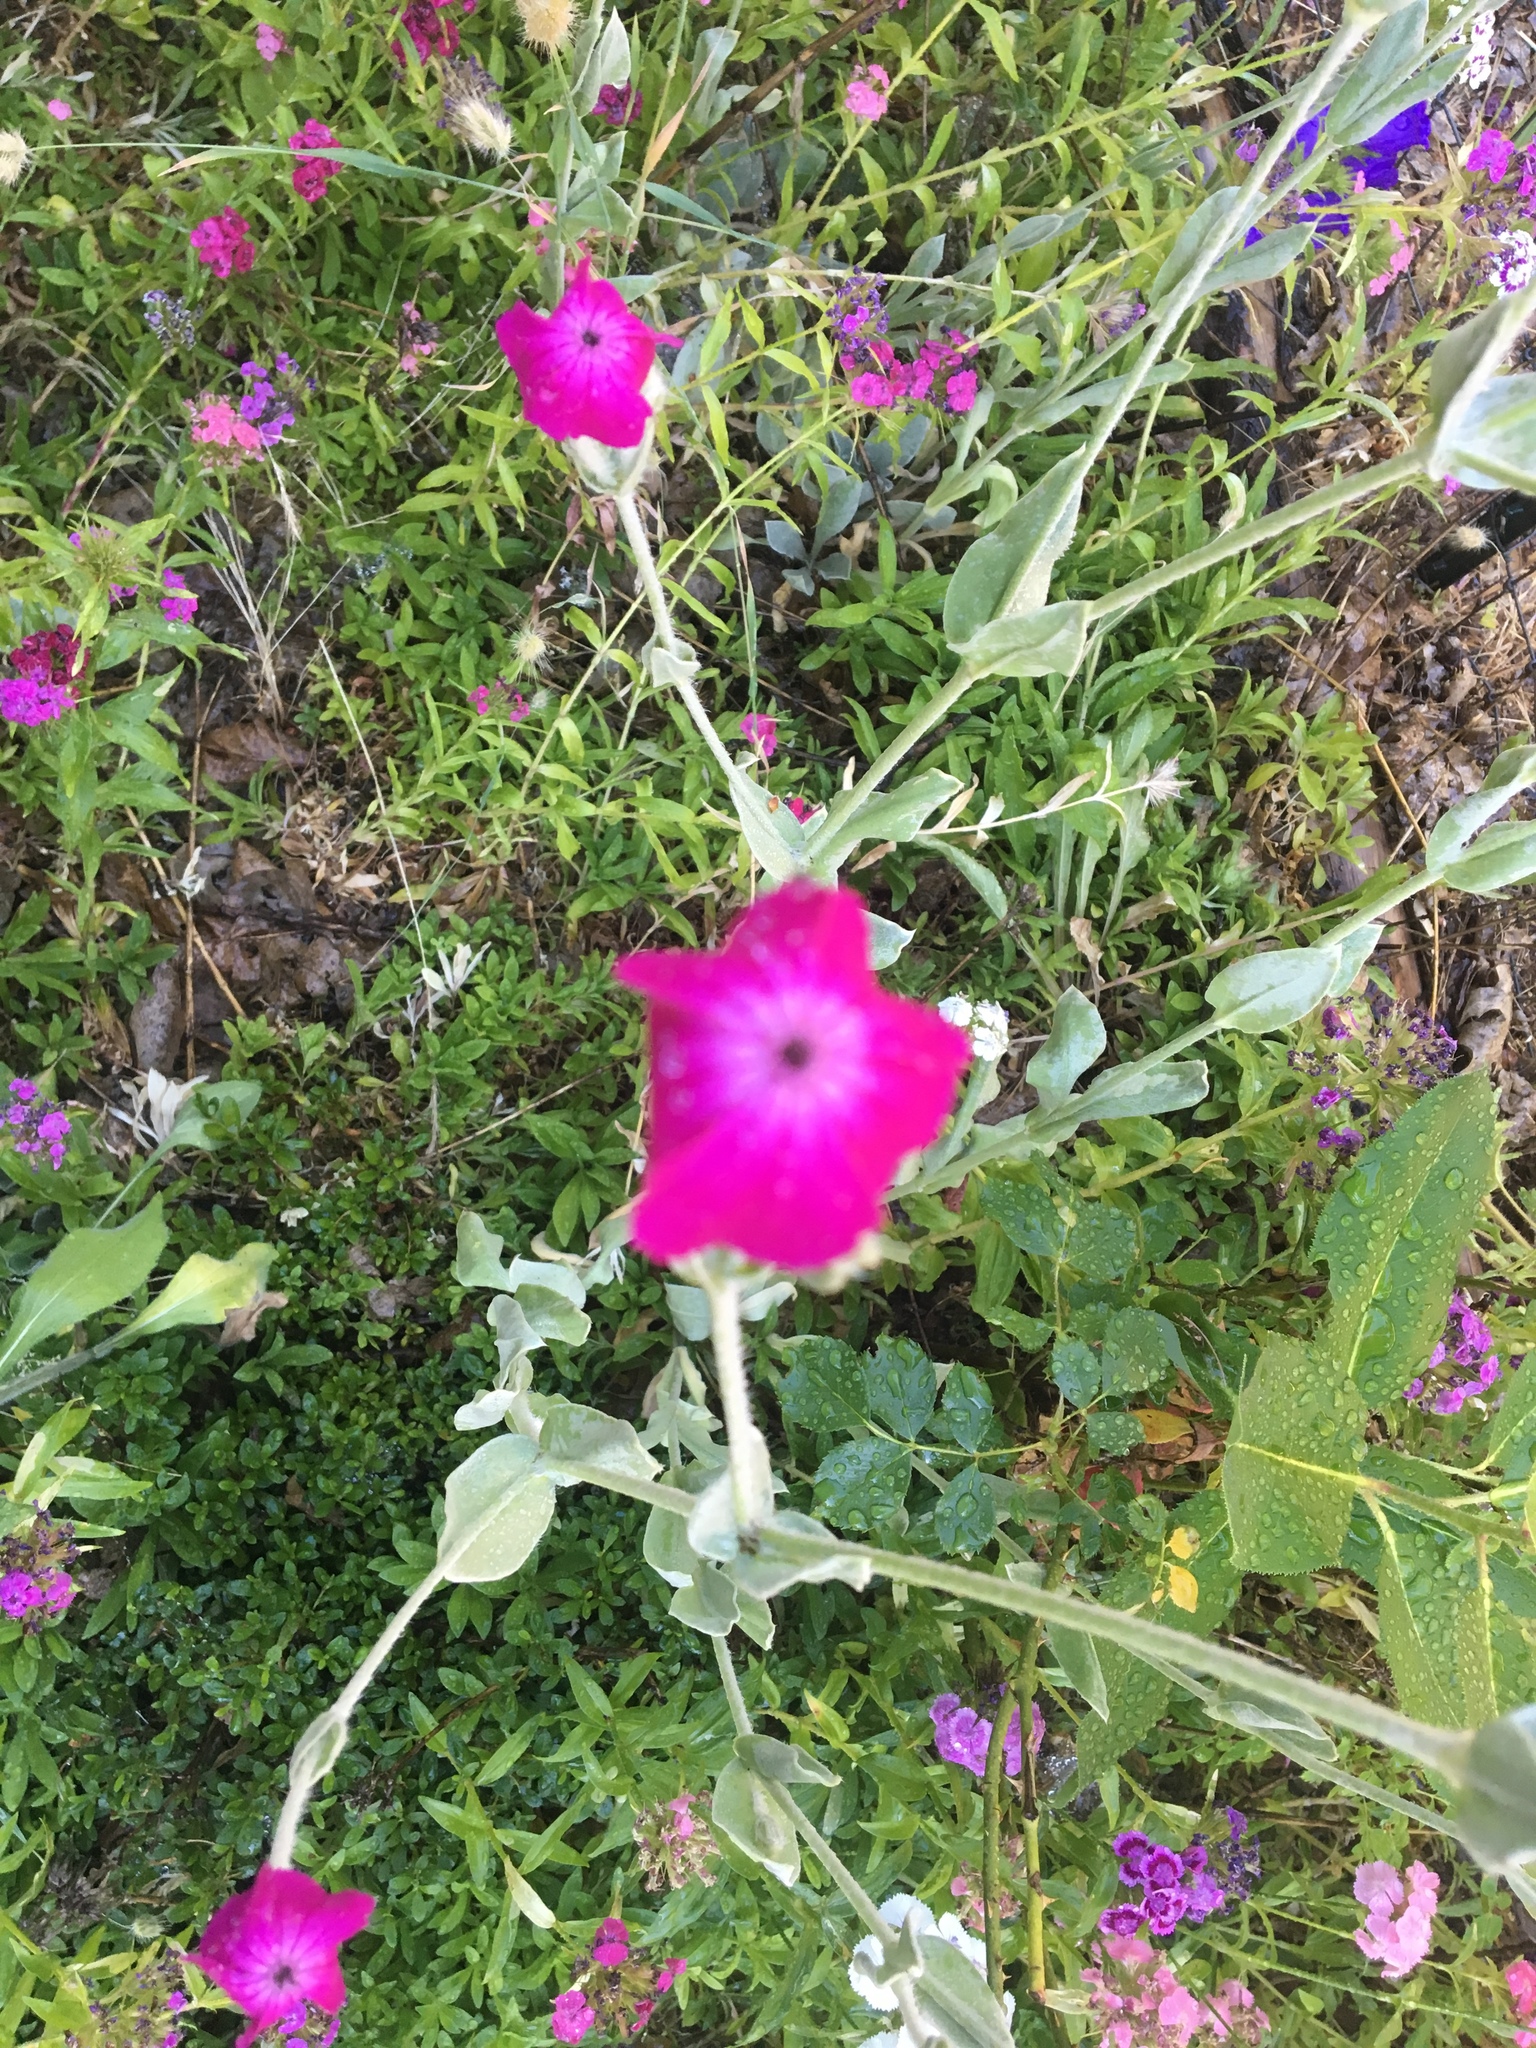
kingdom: Plantae
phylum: Tracheophyta
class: Magnoliopsida
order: Caryophyllales
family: Caryophyllaceae
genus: Silene
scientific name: Silene coronaria
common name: Rose campion
